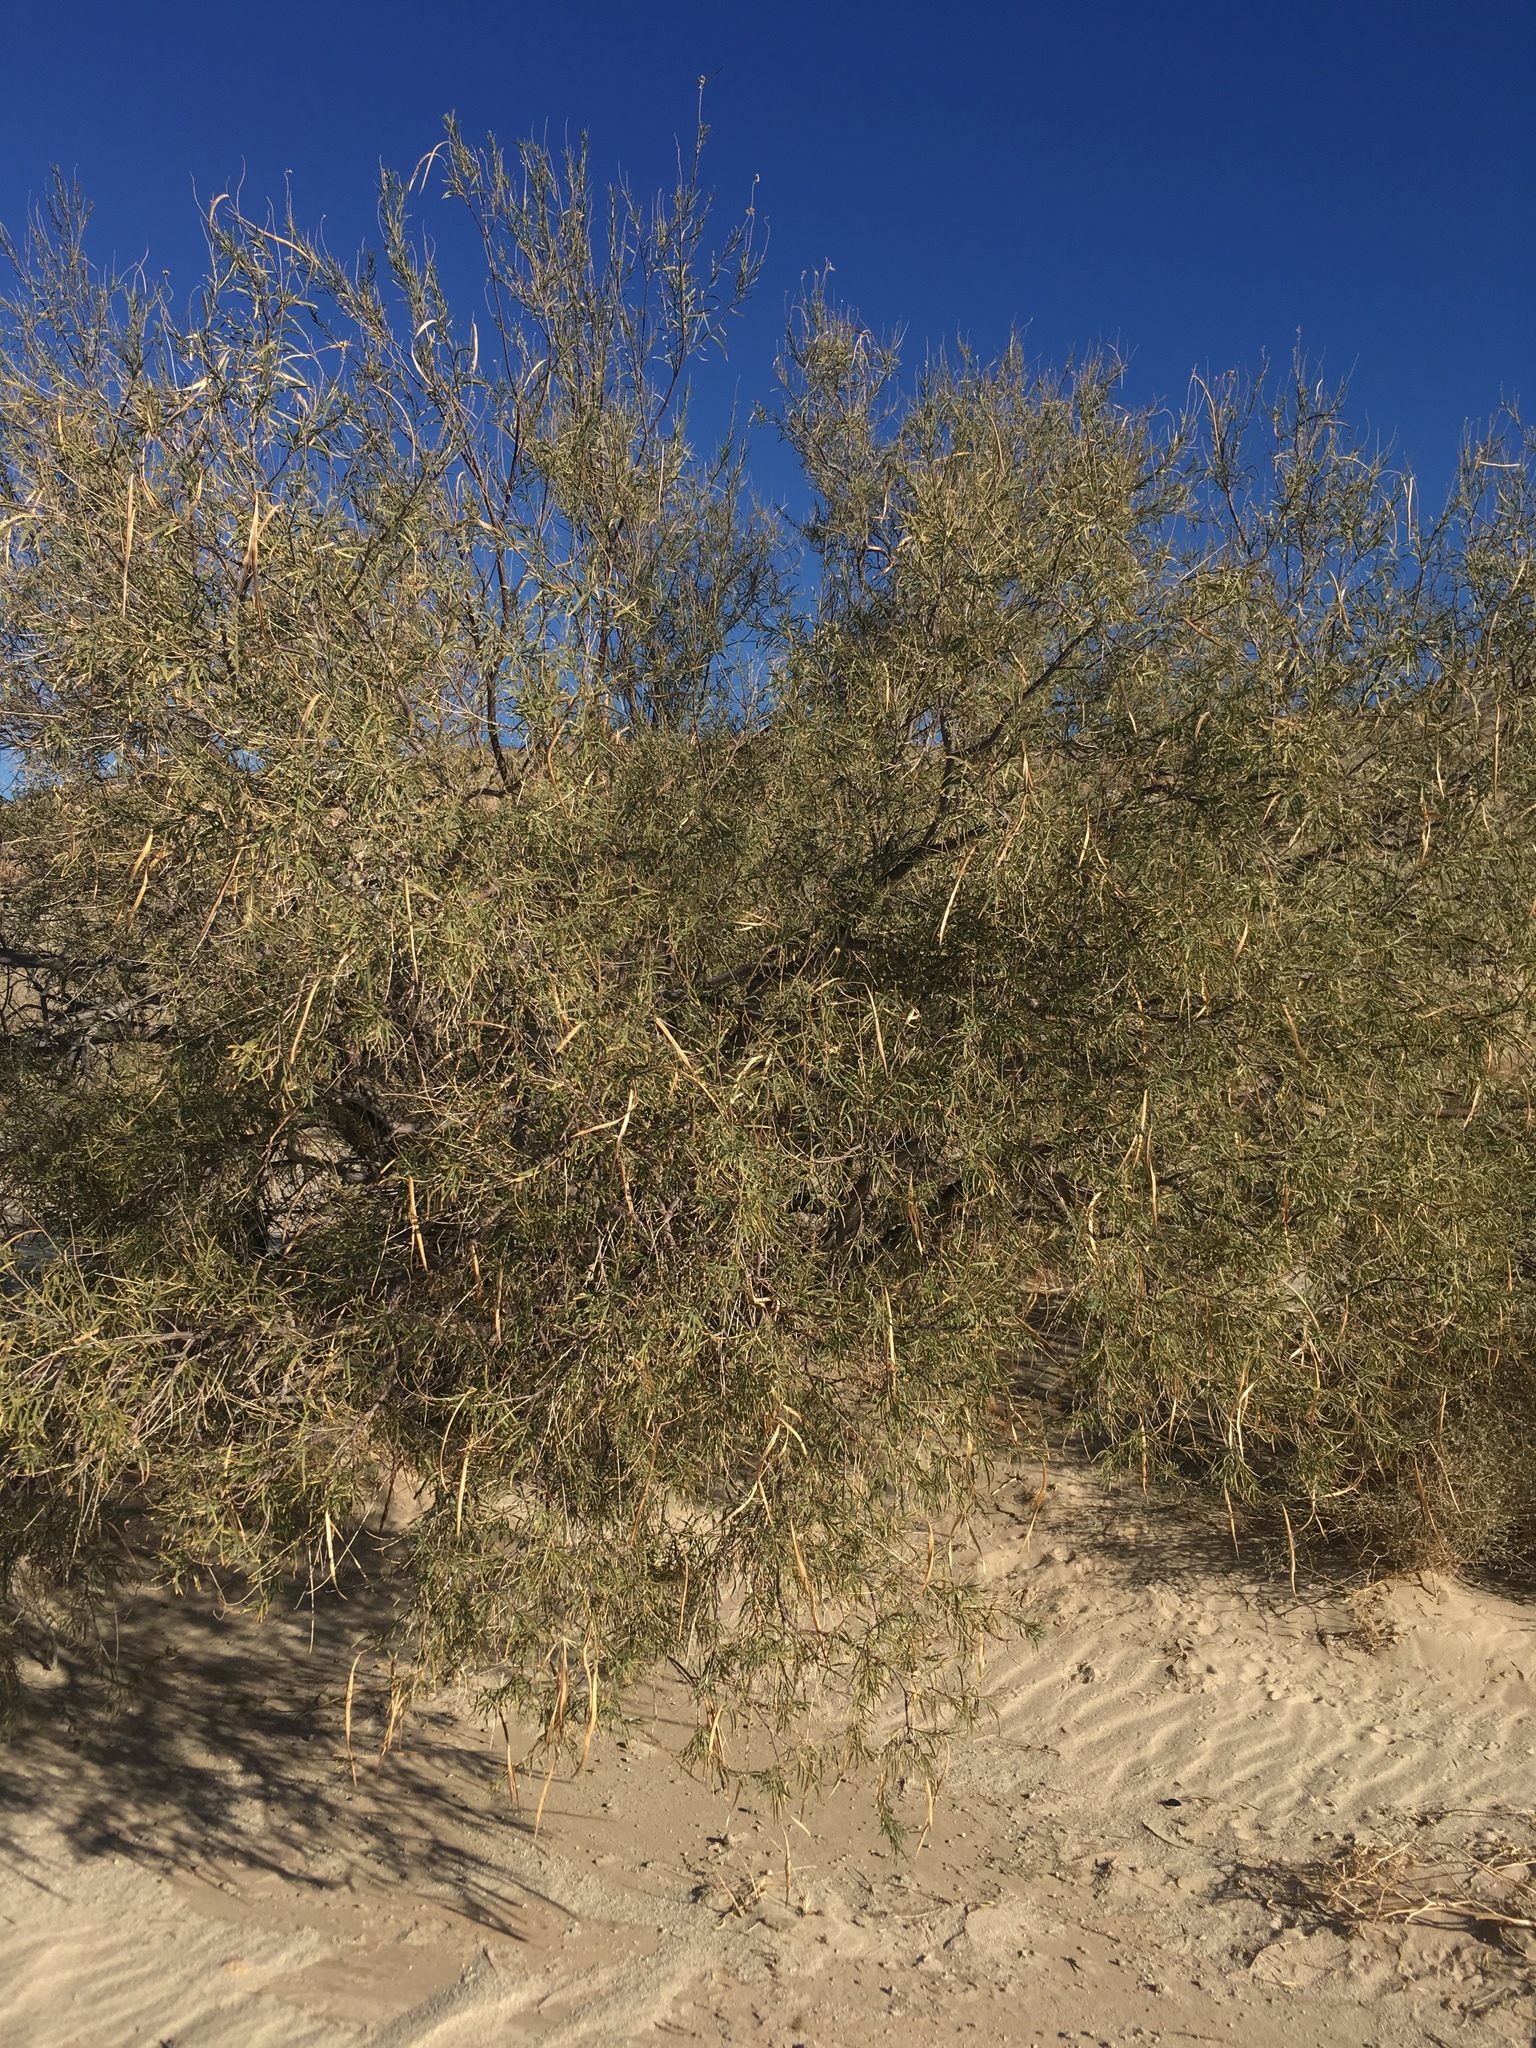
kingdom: Plantae
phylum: Tracheophyta
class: Magnoliopsida
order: Lamiales
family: Bignoniaceae
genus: Chilopsis
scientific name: Chilopsis linearis
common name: Desert-willow
